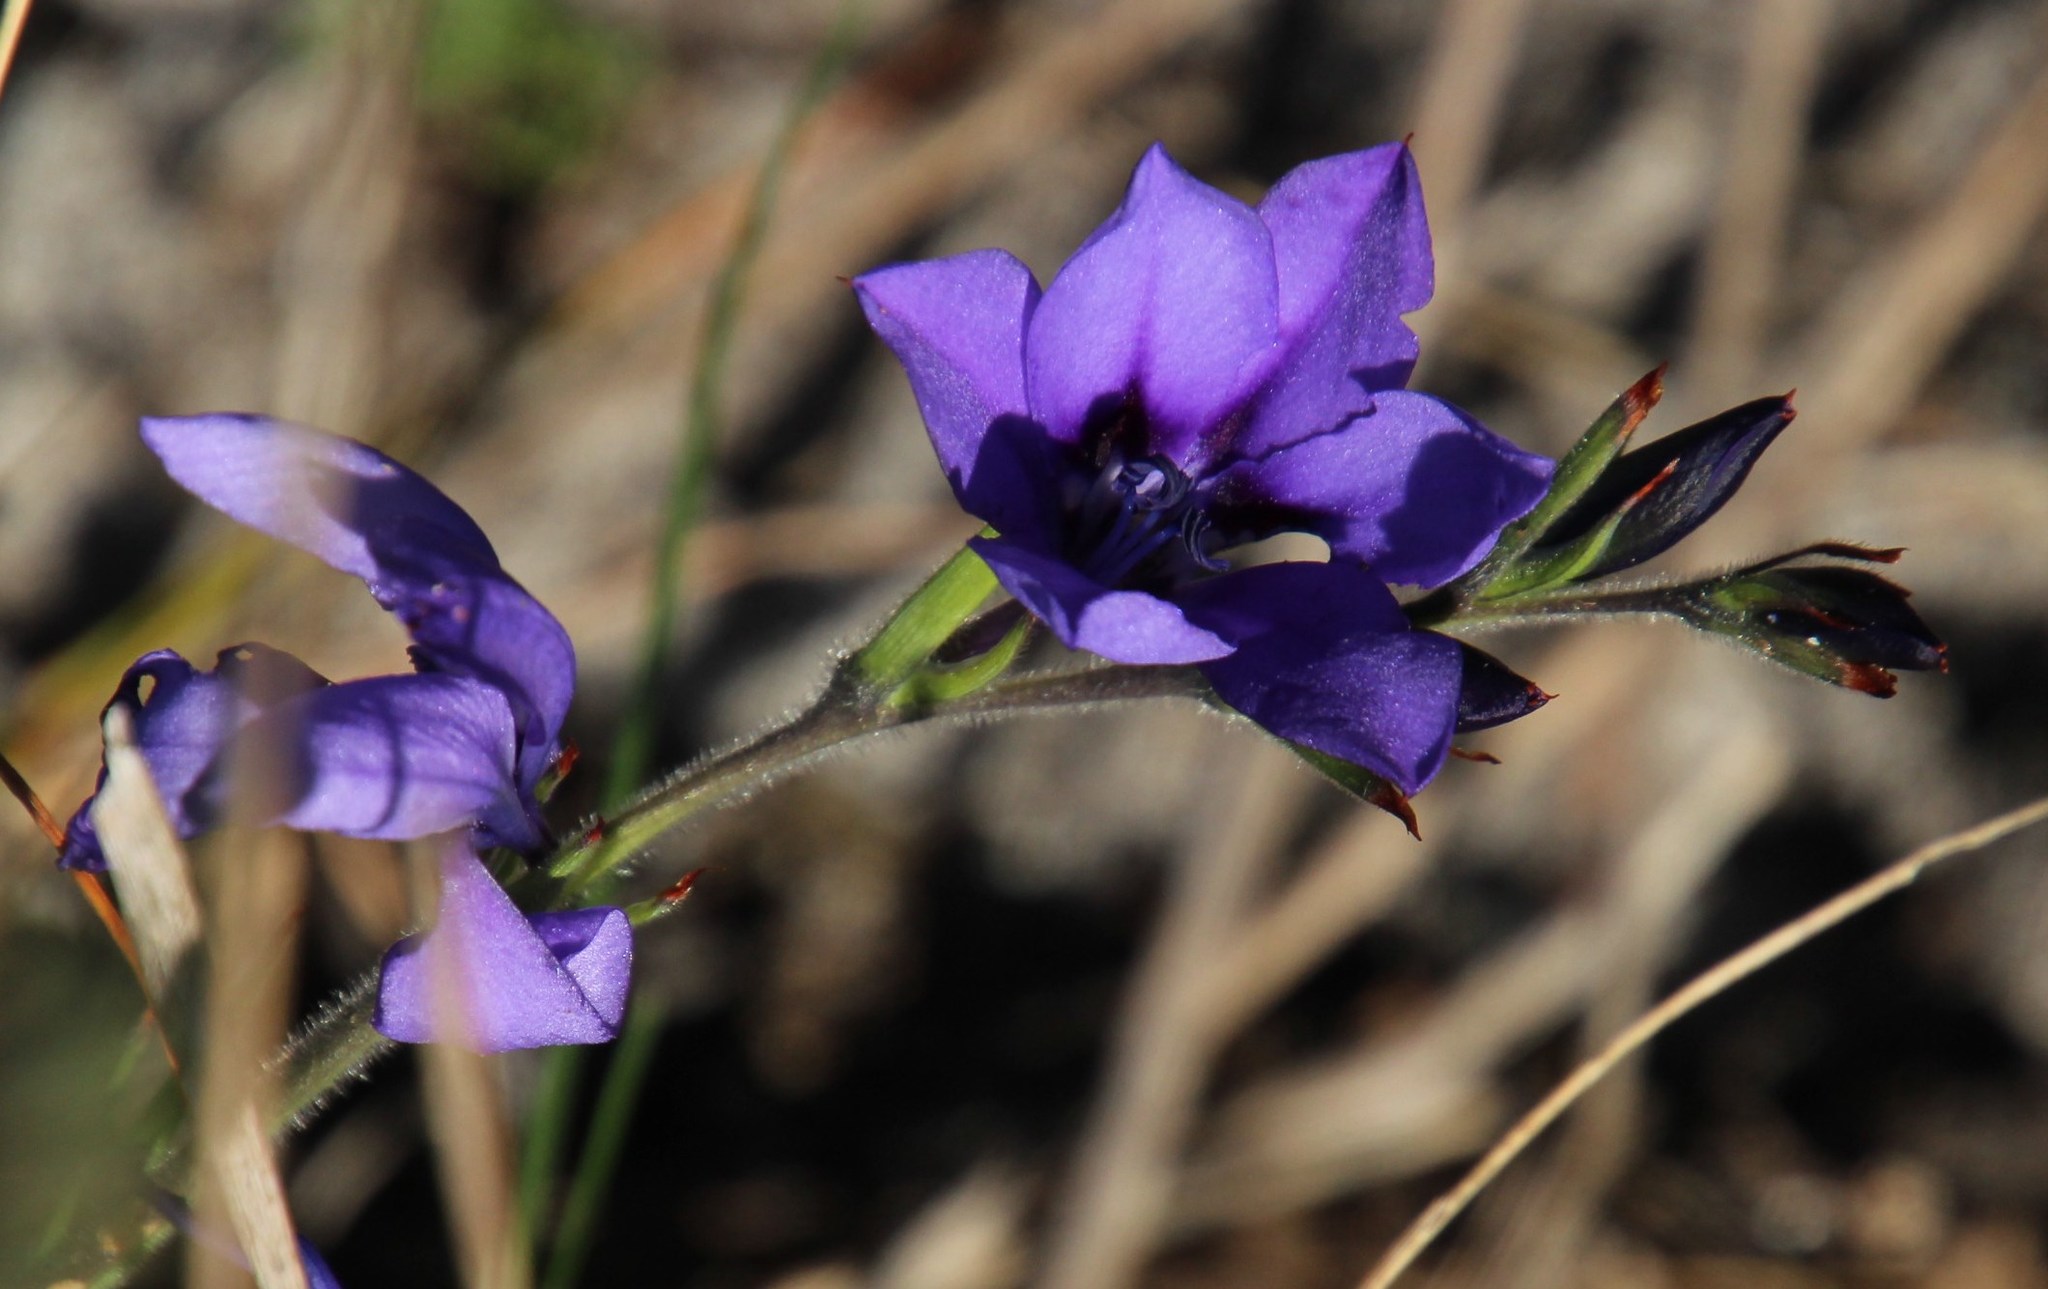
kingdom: Plantae
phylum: Tracheophyta
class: Liliopsida
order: Asparagales
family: Iridaceae
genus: Babiana
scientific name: Babiana angustifolia
